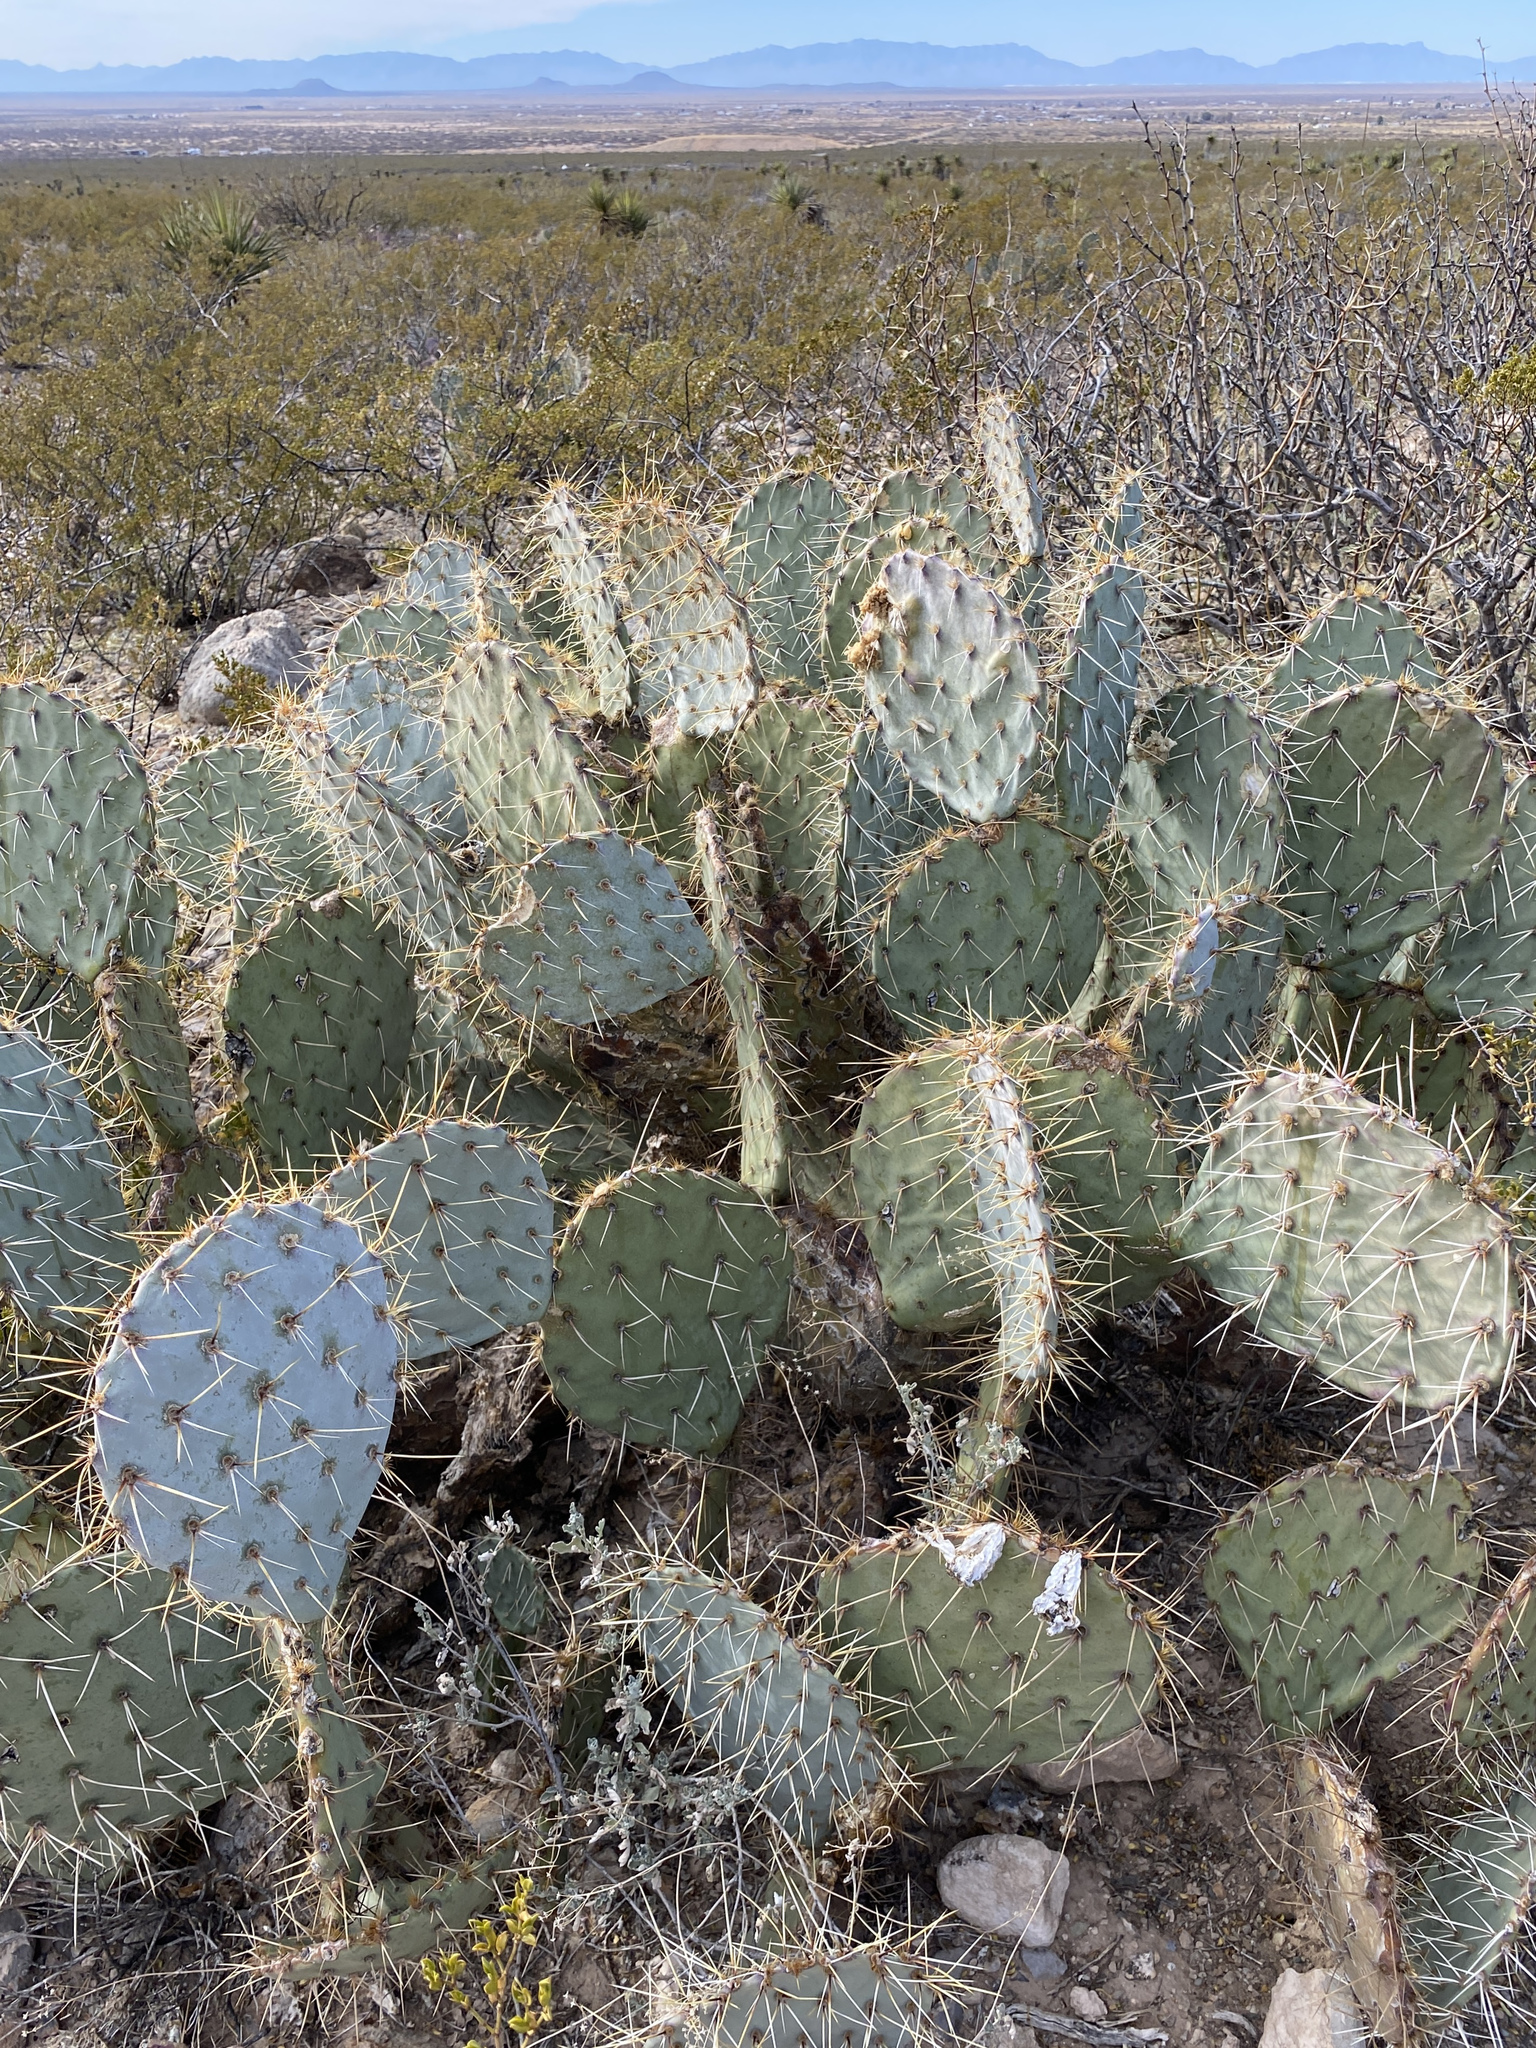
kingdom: Plantae
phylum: Tracheophyta
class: Magnoliopsida
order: Caryophyllales
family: Cactaceae
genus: Opuntia
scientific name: Opuntia engelmannii
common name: Cactus-apple
